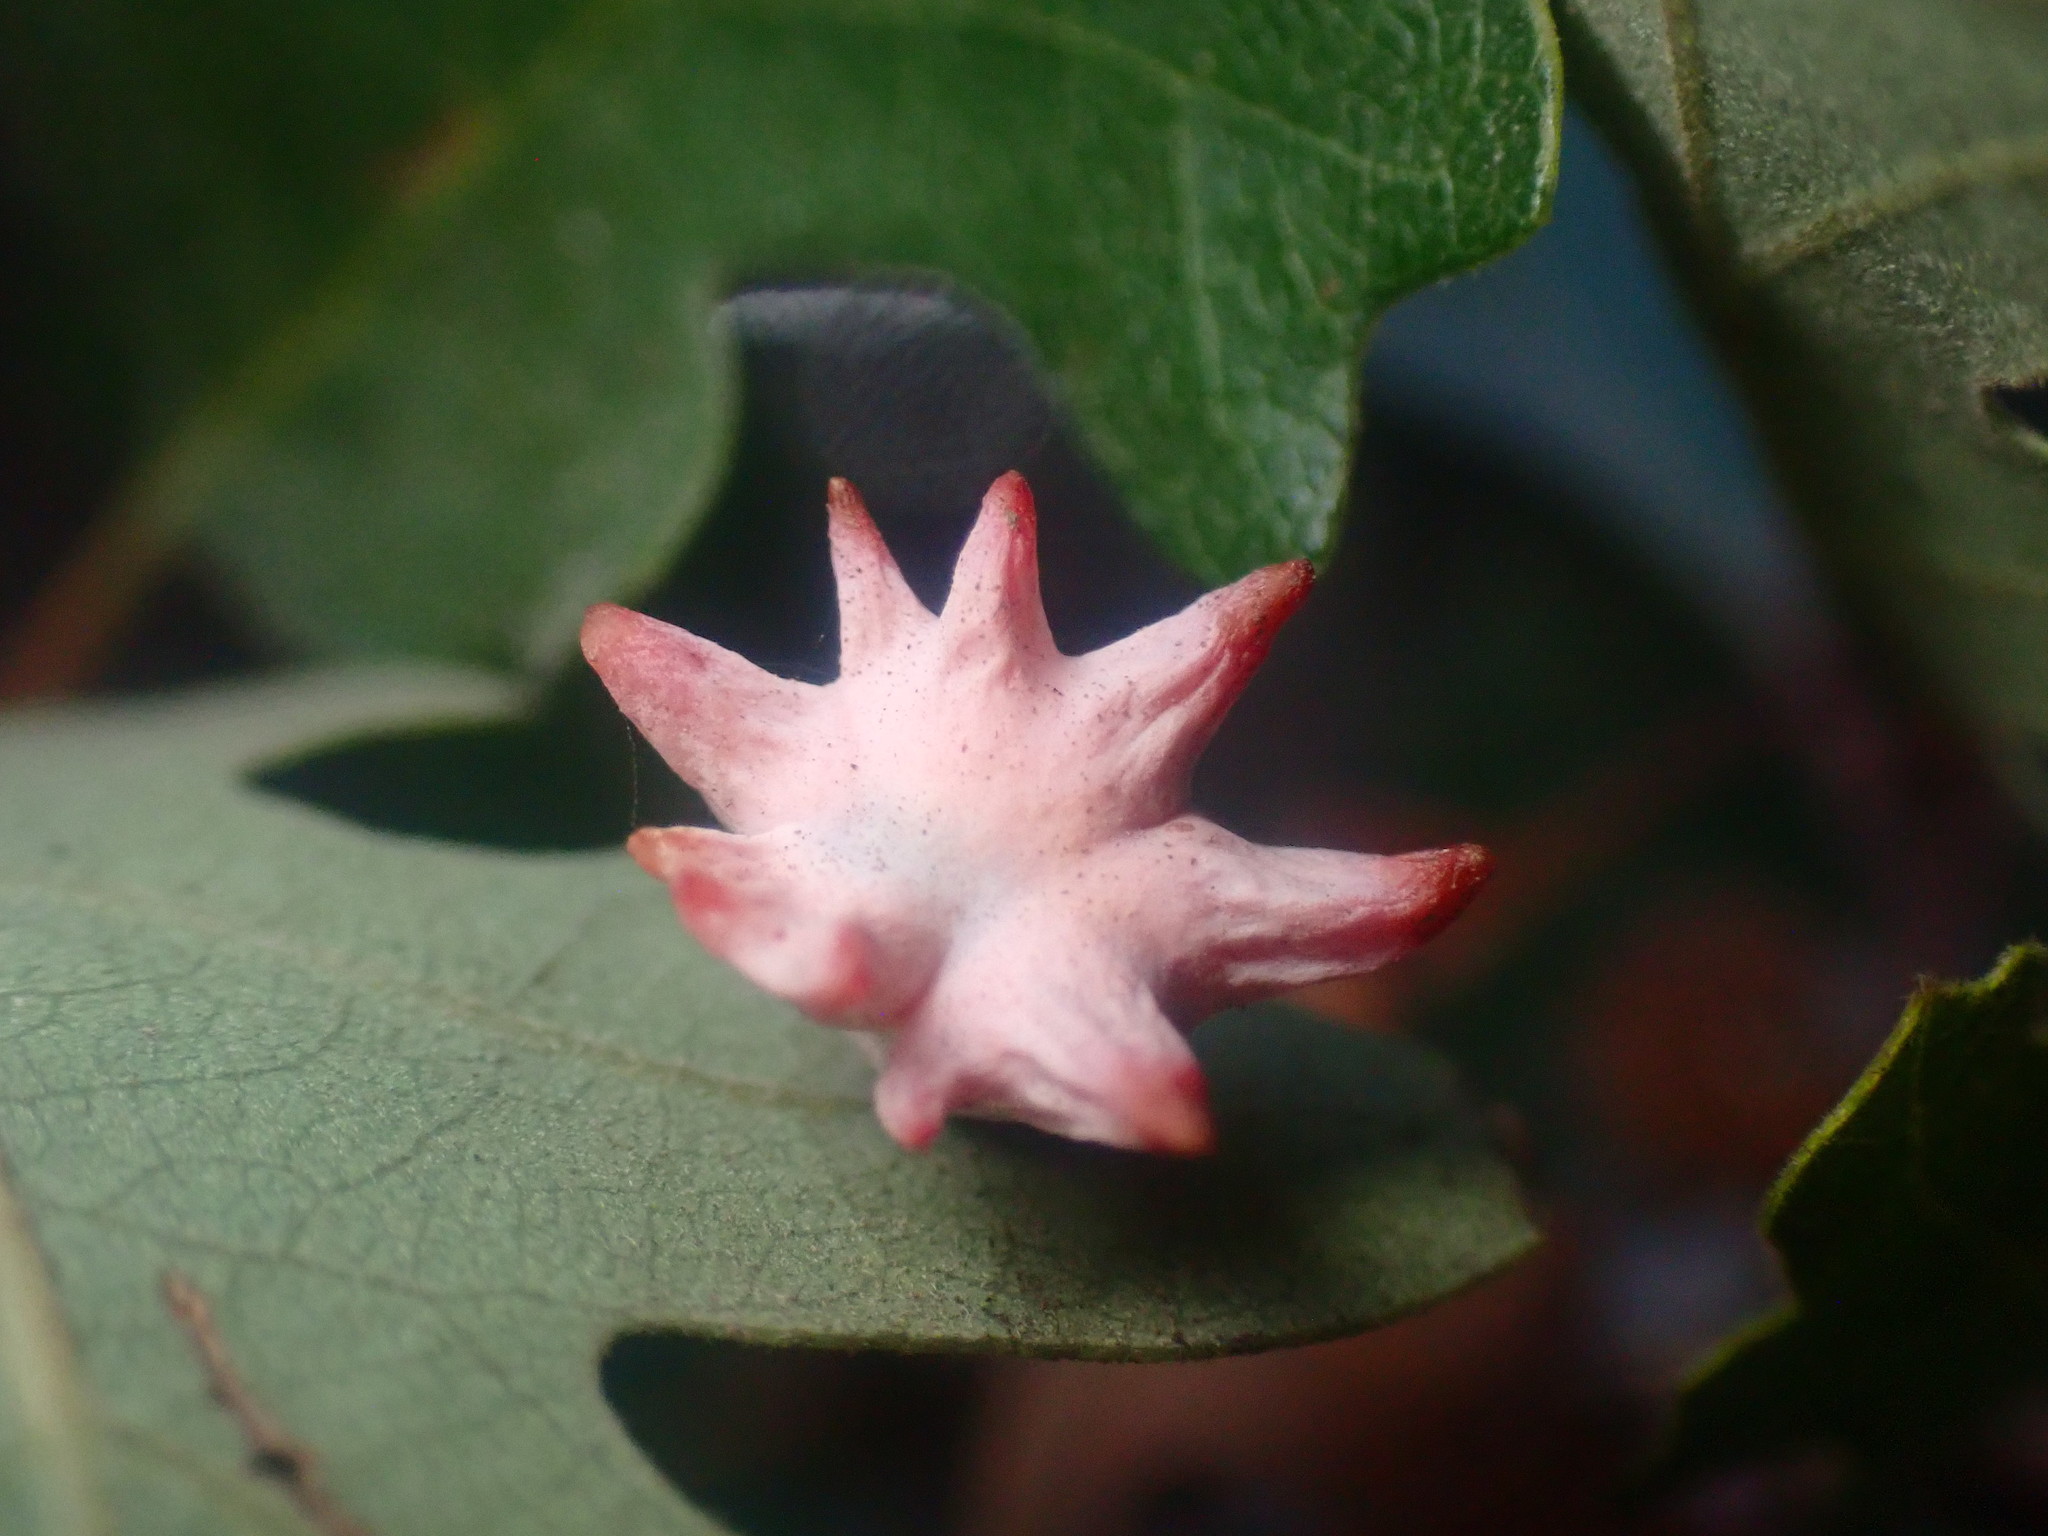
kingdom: Animalia
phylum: Arthropoda
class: Insecta
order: Hymenoptera
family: Cynipidae
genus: Cynips
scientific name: Cynips douglasi
